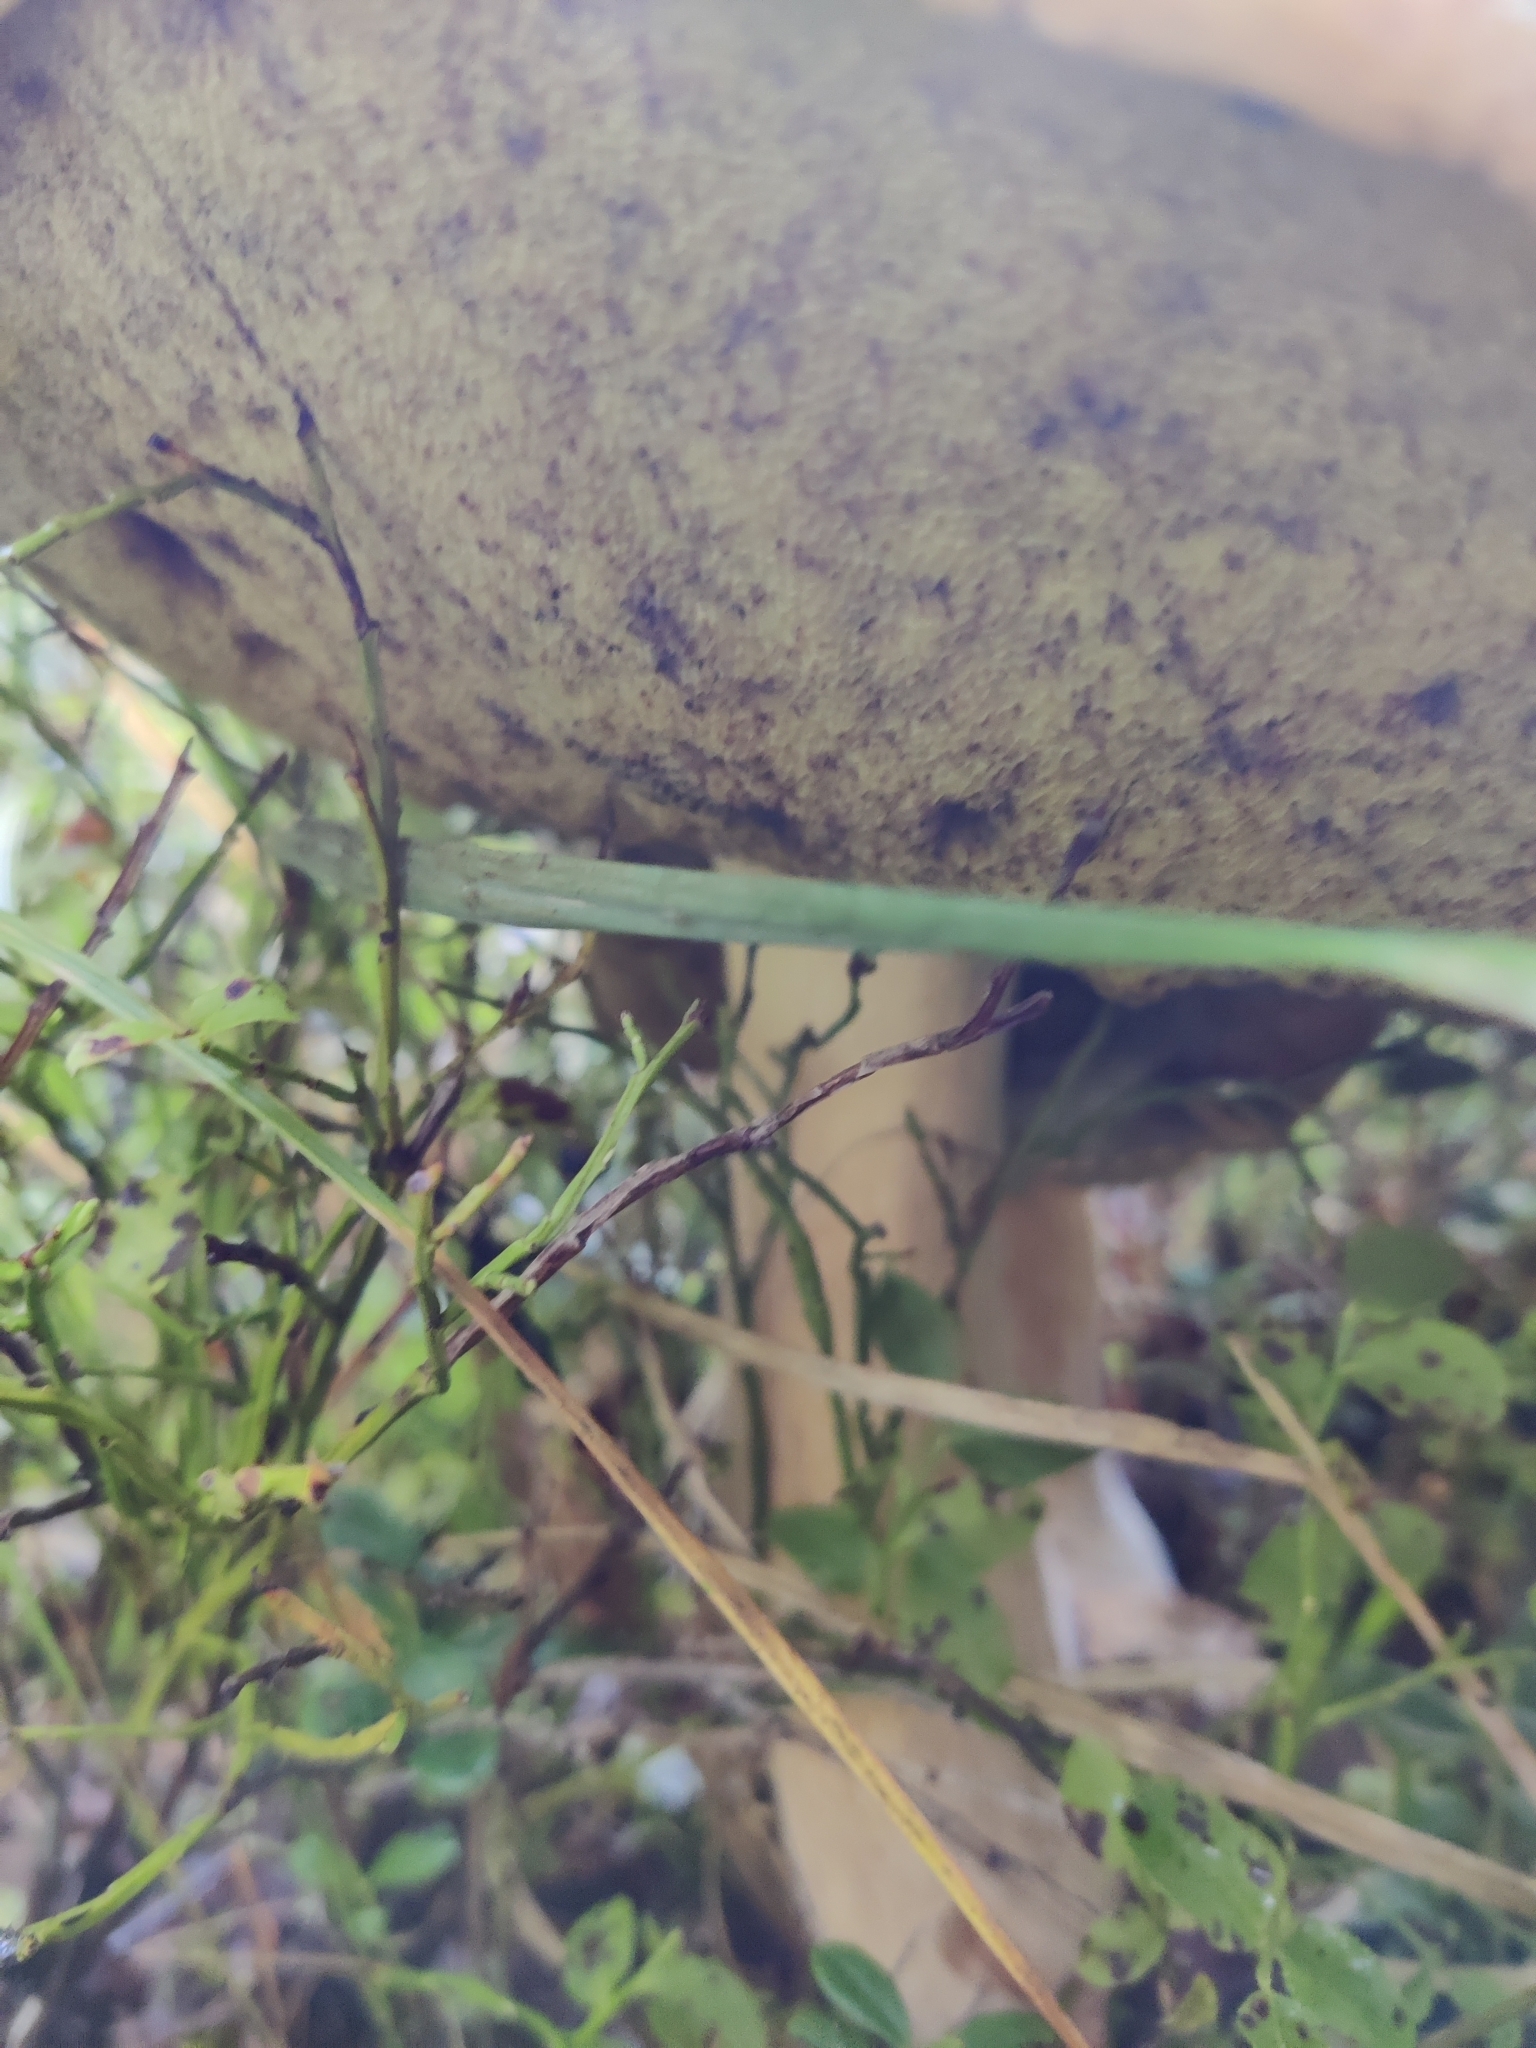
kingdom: Fungi
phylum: Basidiomycota
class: Agaricomycetes
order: Boletales
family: Boletaceae
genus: Boletus
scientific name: Boletus edulis
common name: Cep
